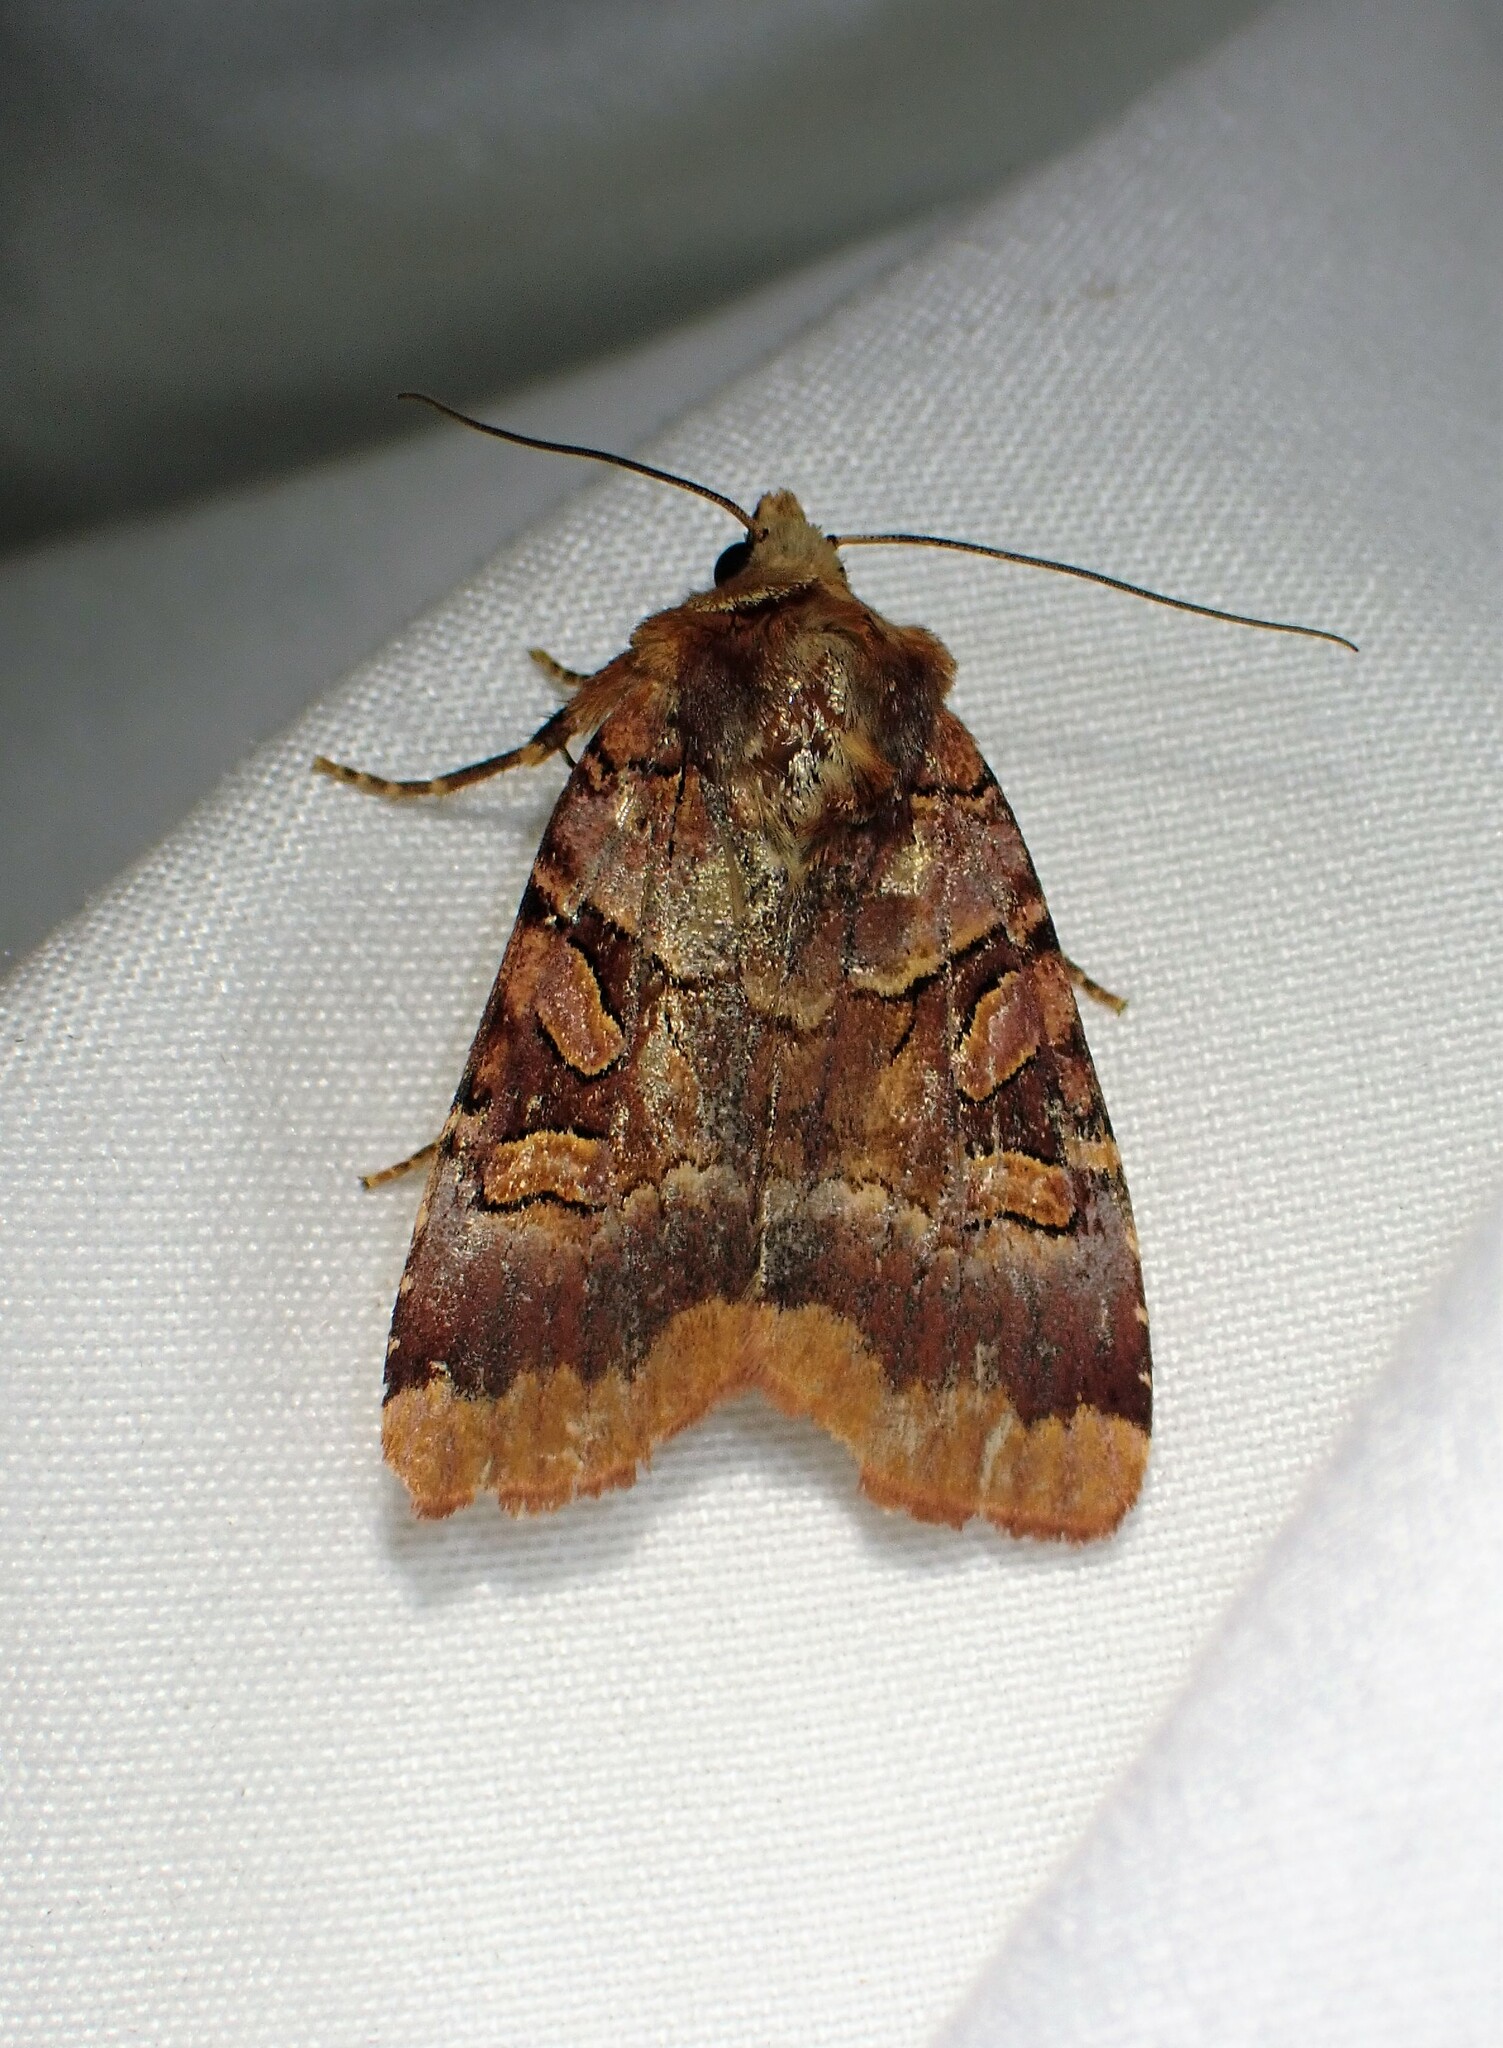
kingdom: Animalia
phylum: Arthropoda
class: Insecta
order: Lepidoptera
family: Noctuidae
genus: Xestia
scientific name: Xestia oblata
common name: Rosy dart
